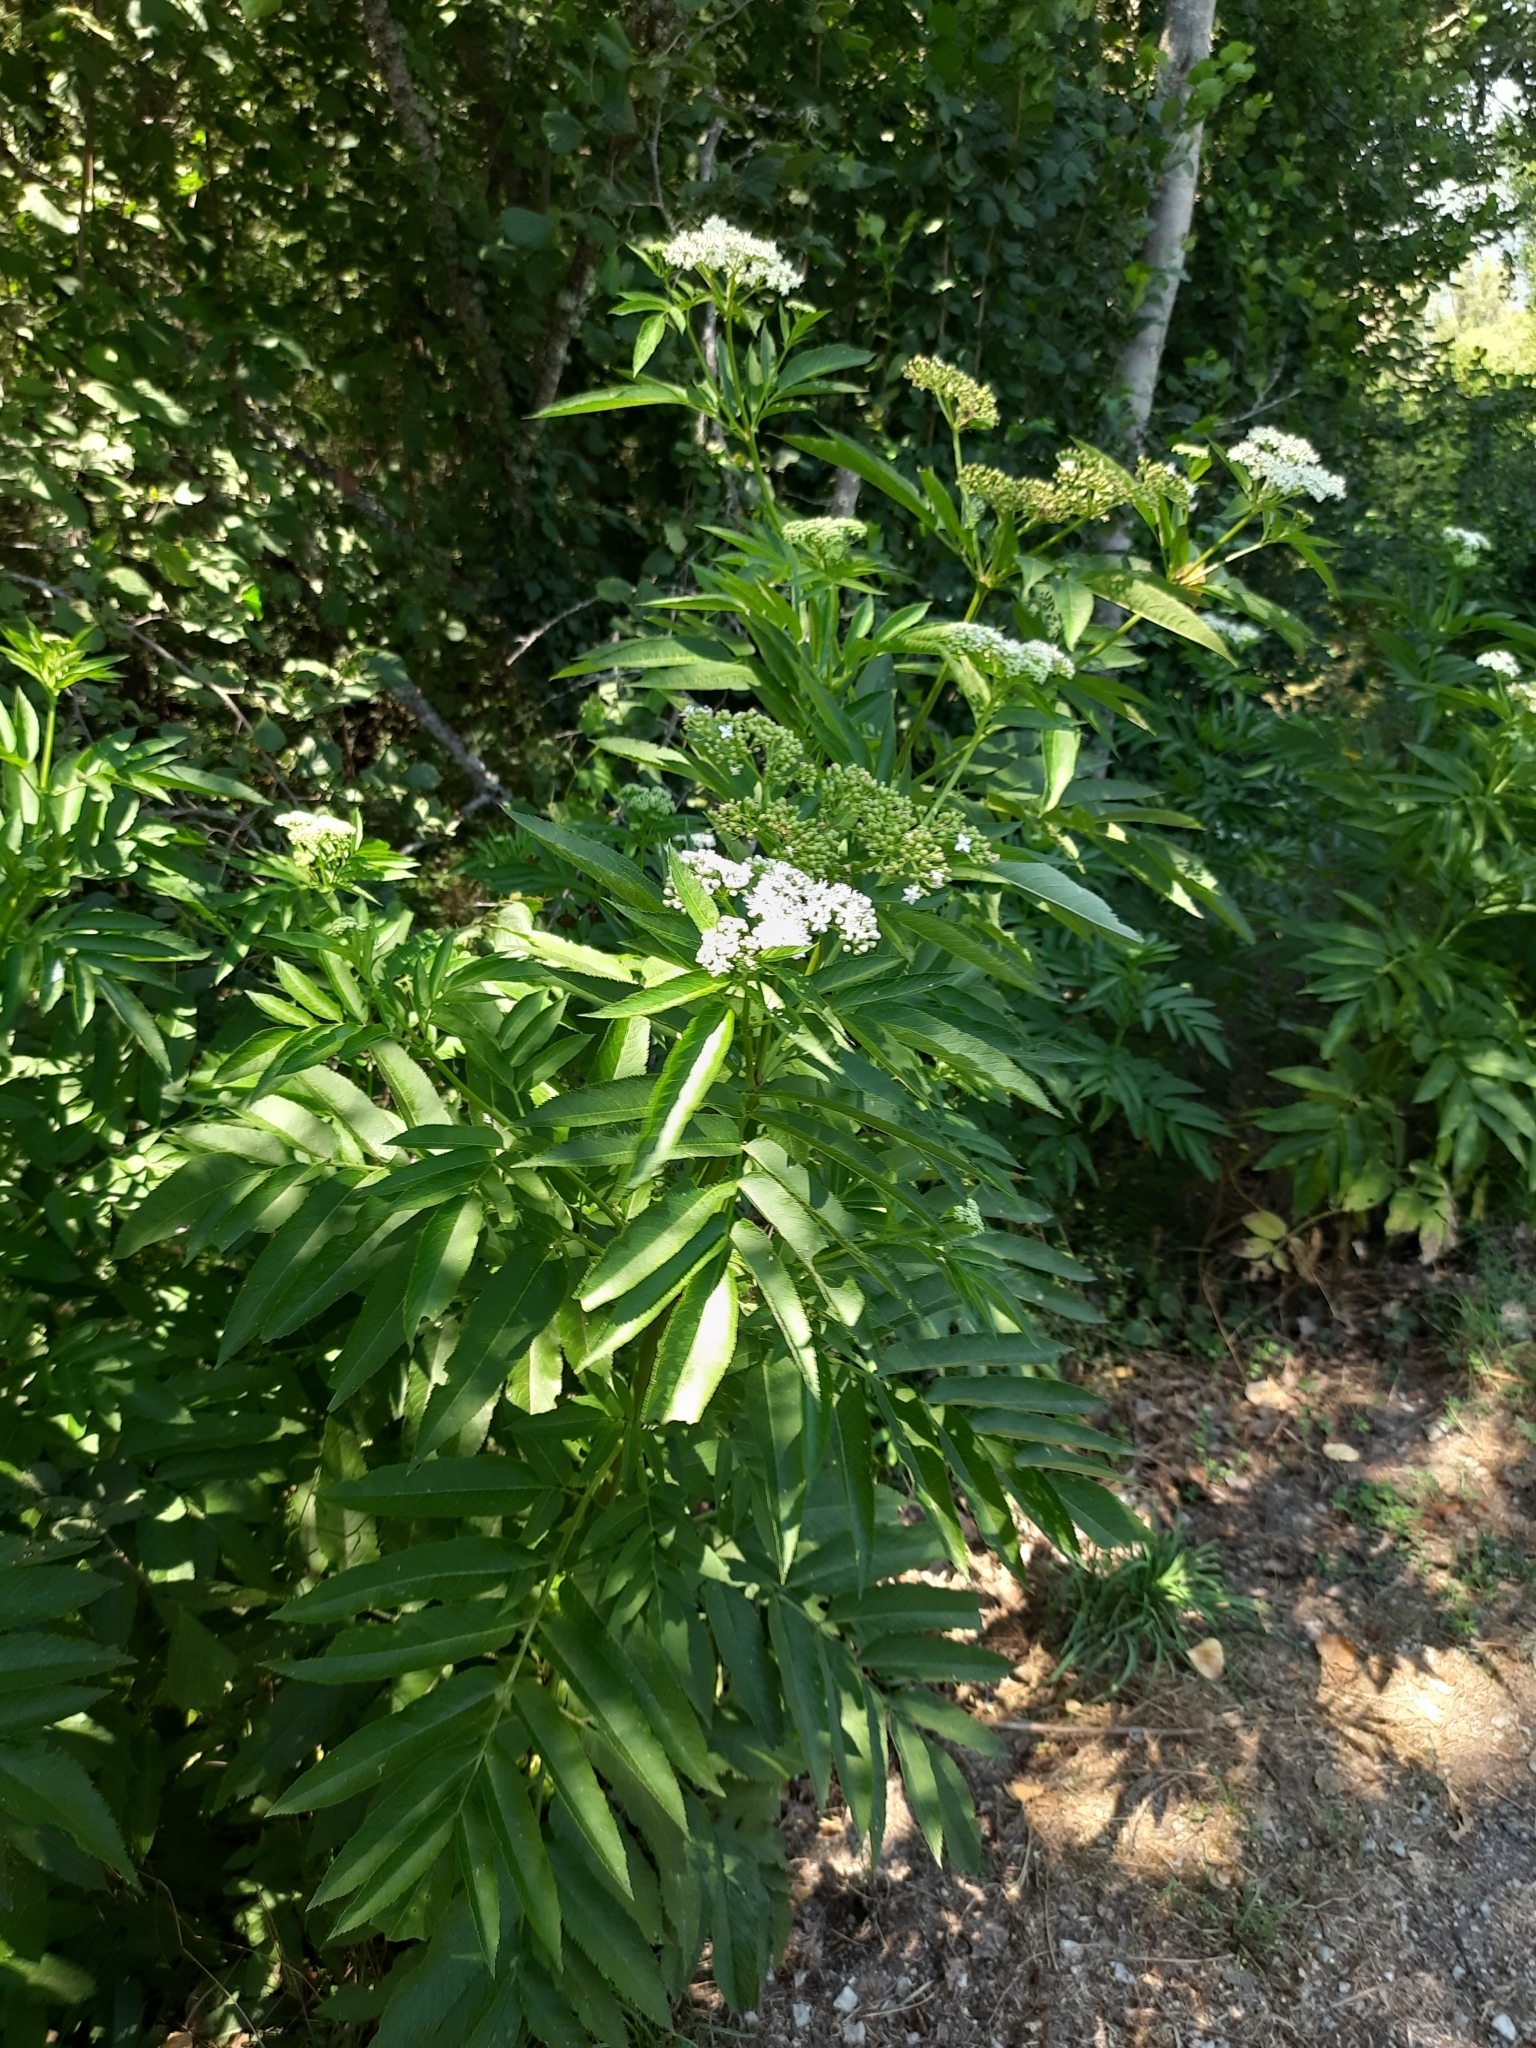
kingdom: Plantae
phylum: Tracheophyta
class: Magnoliopsida
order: Dipsacales
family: Viburnaceae
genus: Sambucus
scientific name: Sambucus ebulus
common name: Dwarf elder
